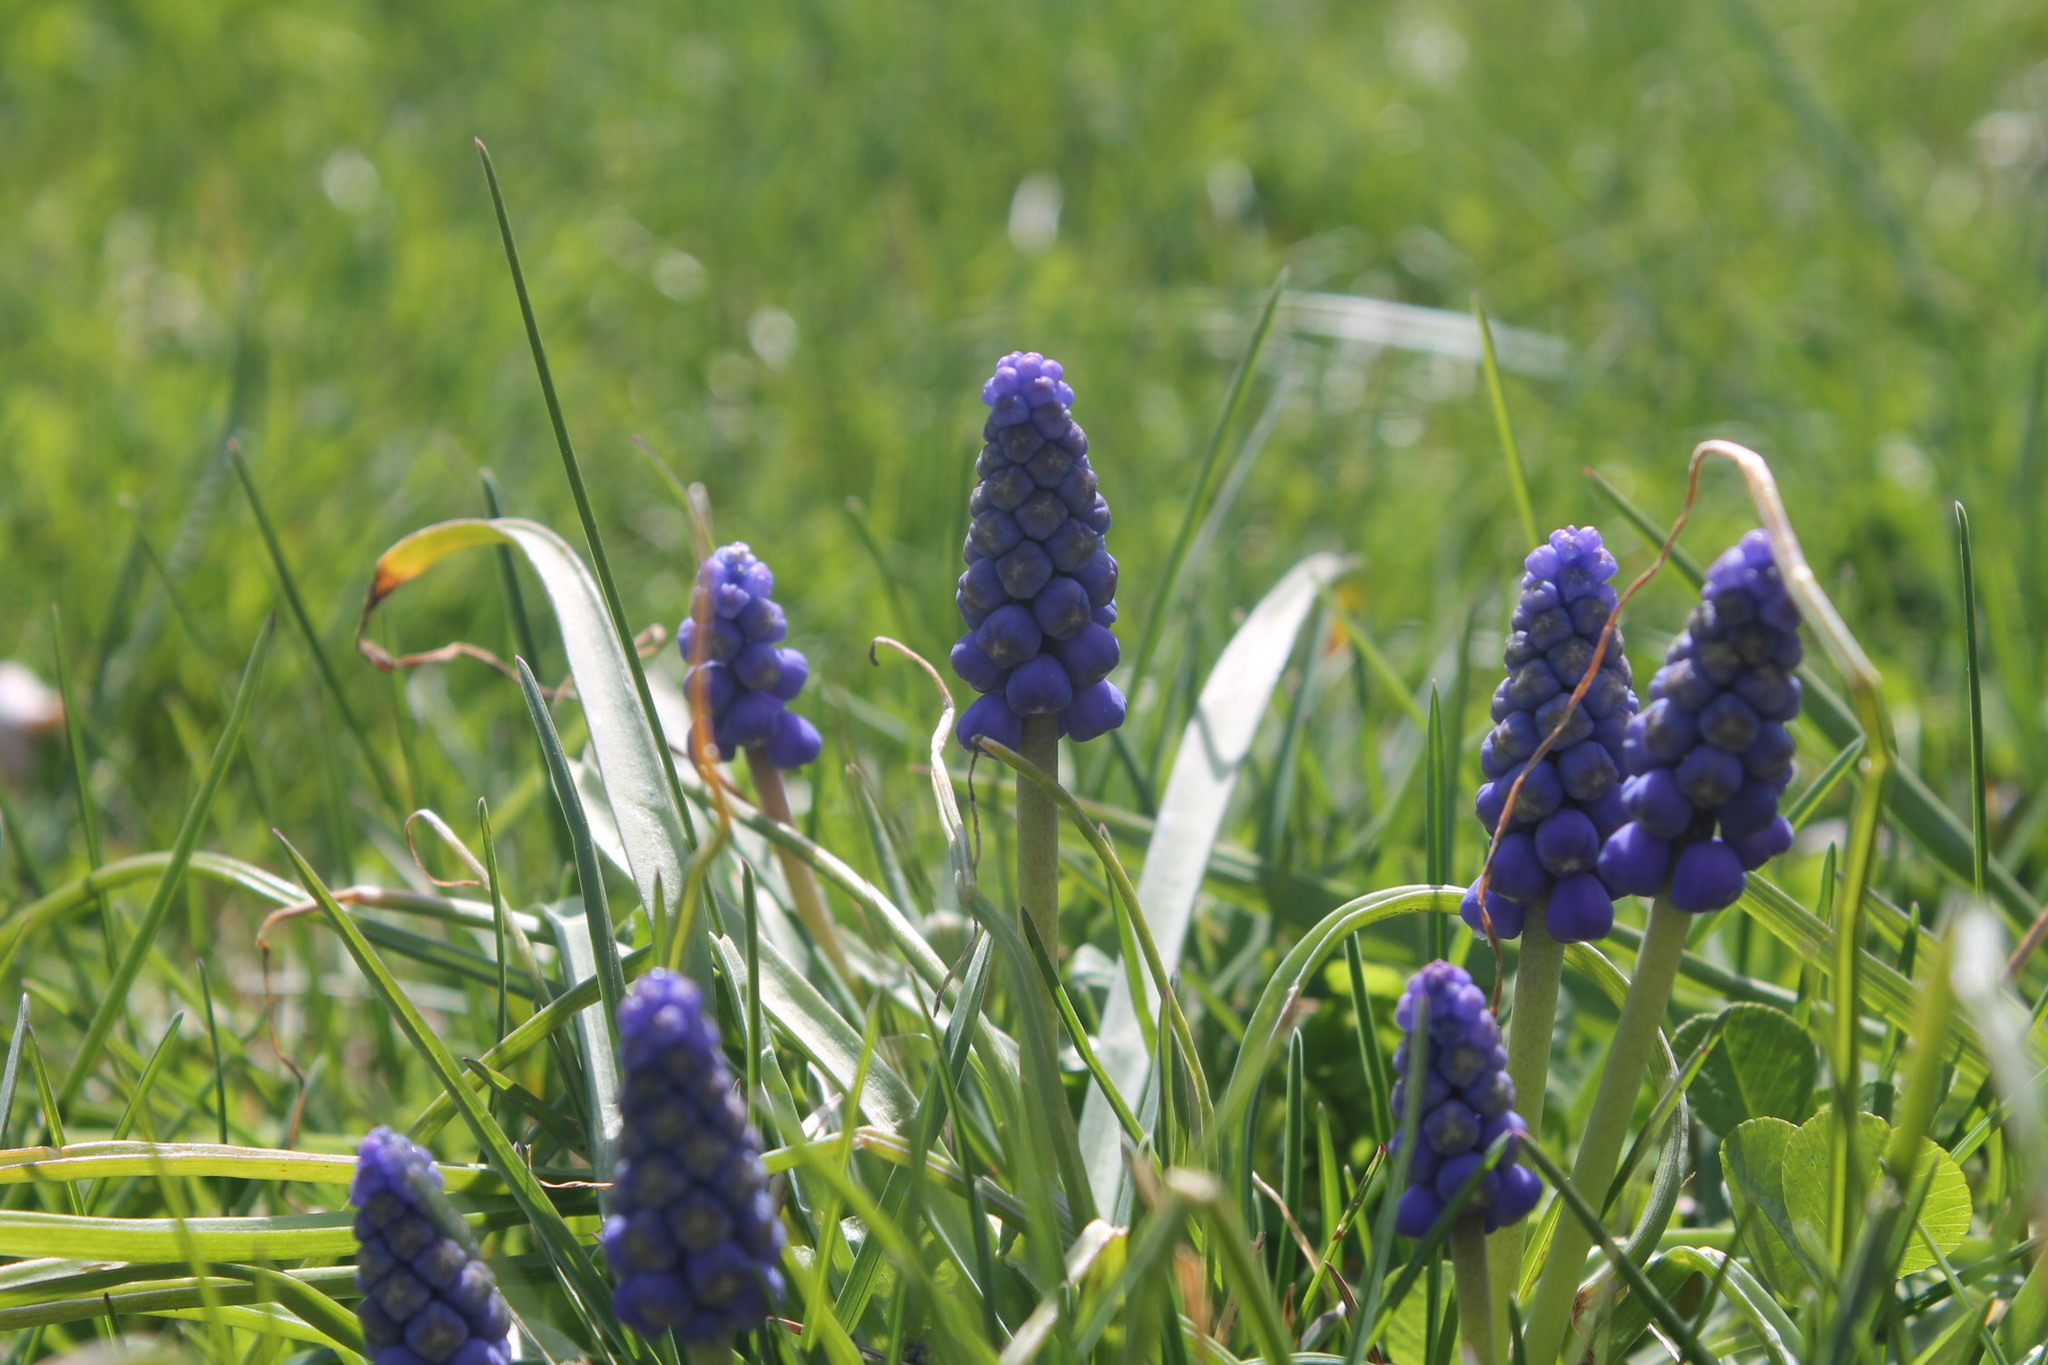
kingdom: Plantae
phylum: Tracheophyta
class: Liliopsida
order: Asparagales
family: Asparagaceae
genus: Muscari
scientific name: Muscari botryoides
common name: Compact grape-hyacinth
